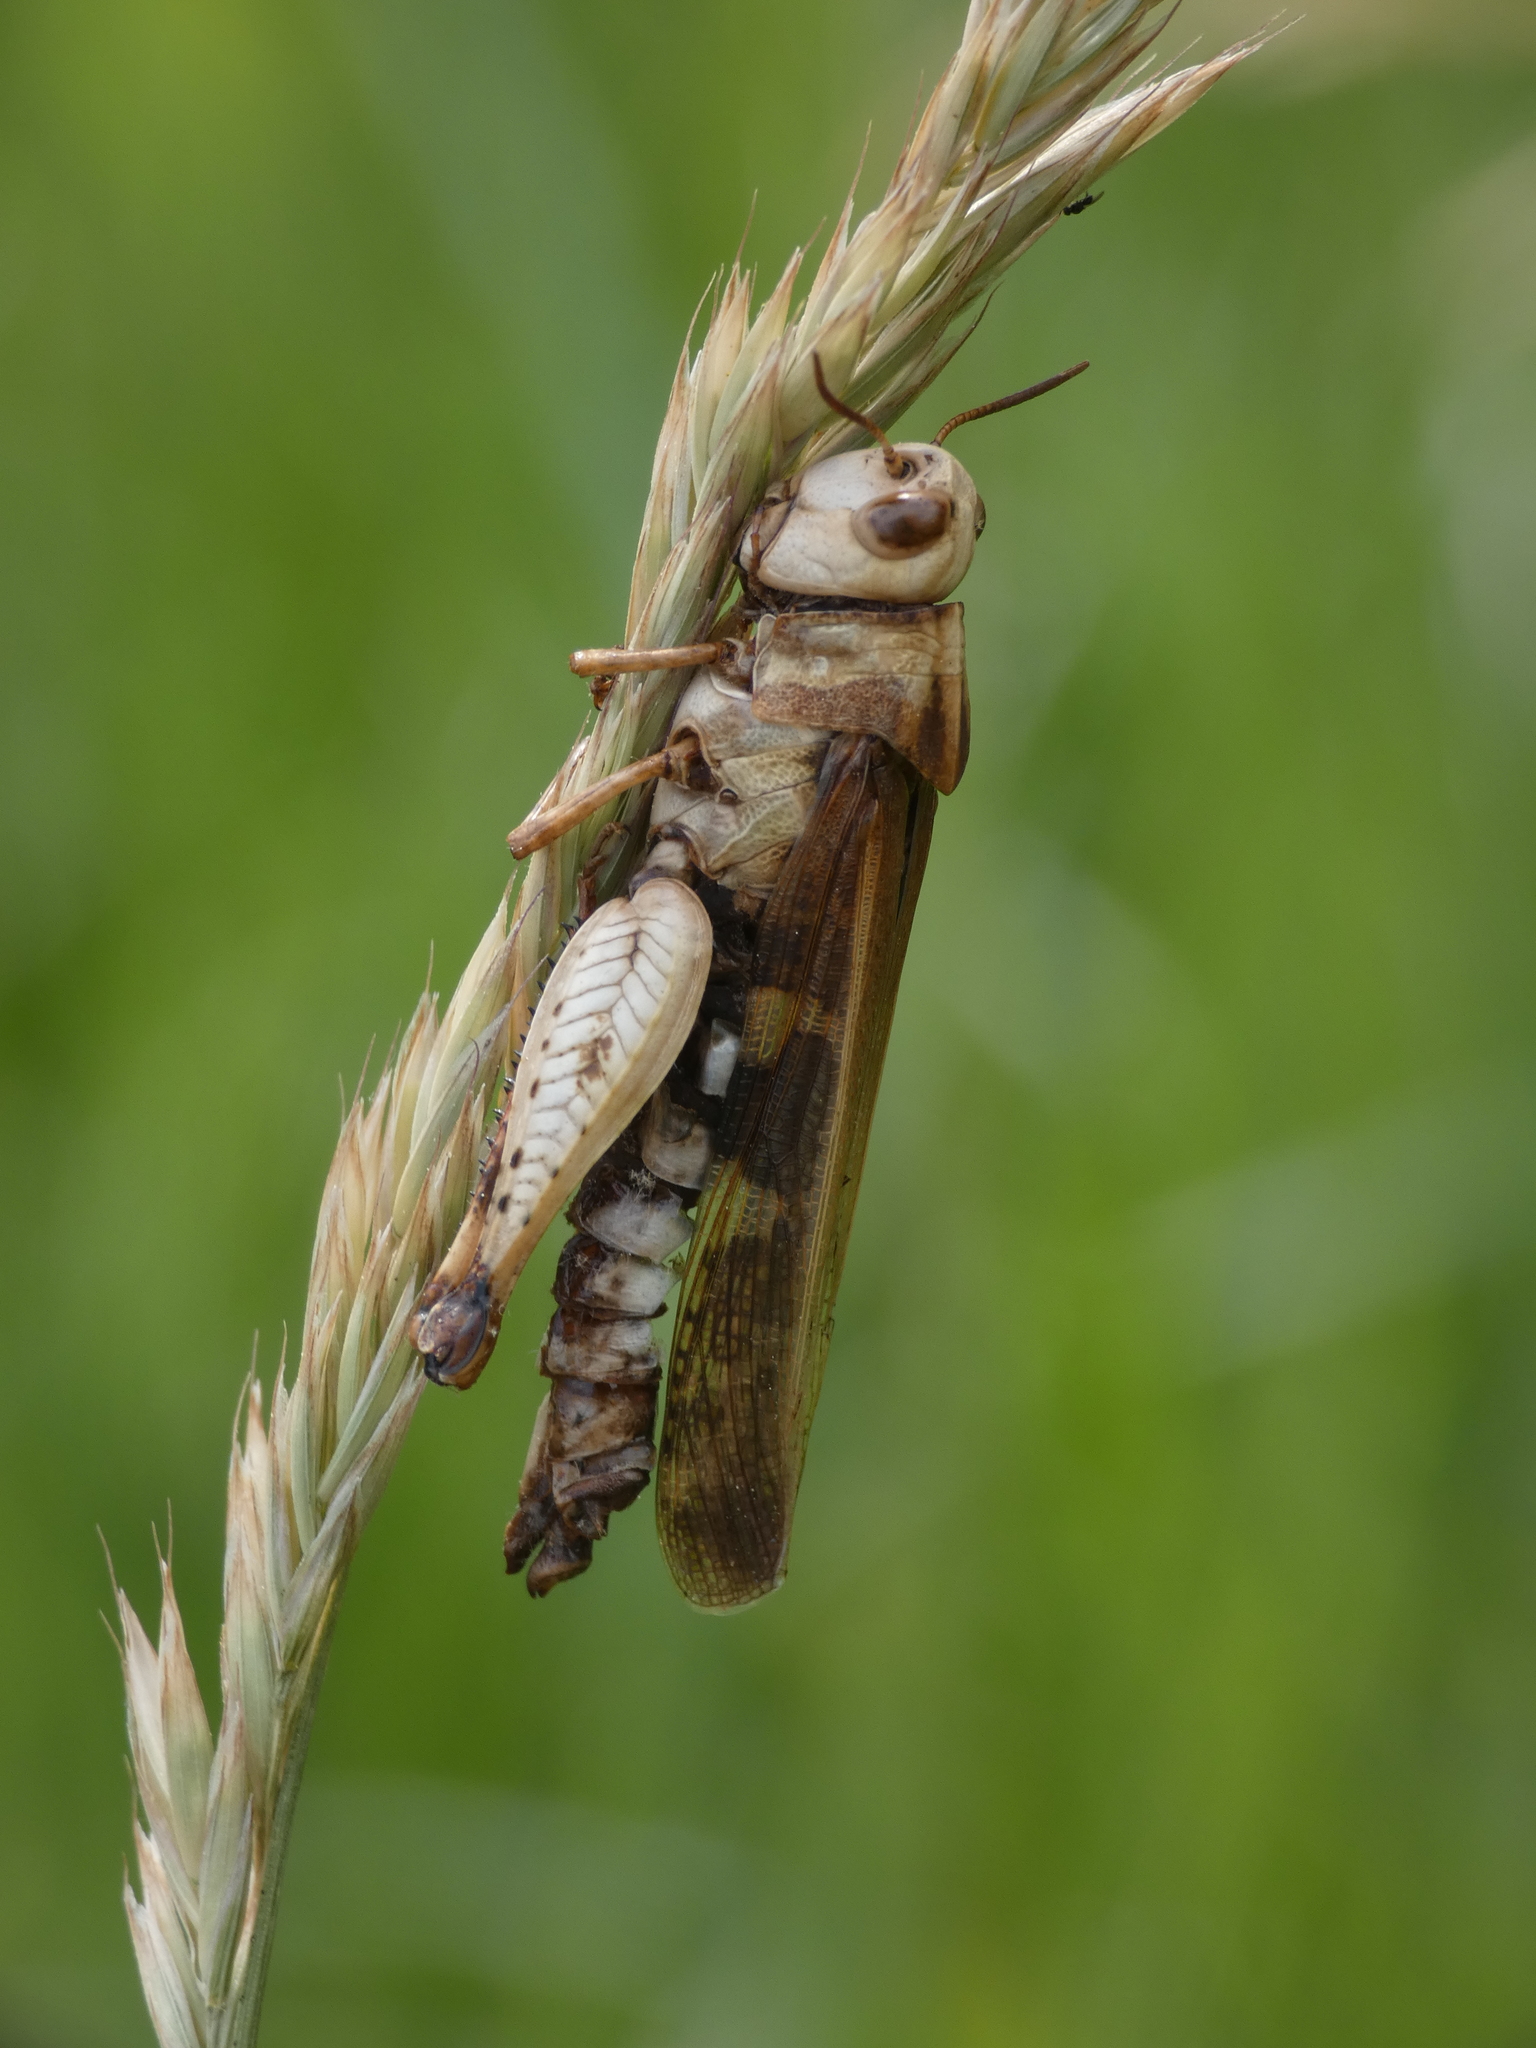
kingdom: Animalia
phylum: Arthropoda
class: Insecta
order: Orthoptera
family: Acrididae
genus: Aiolopus
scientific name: Aiolopus strepens
